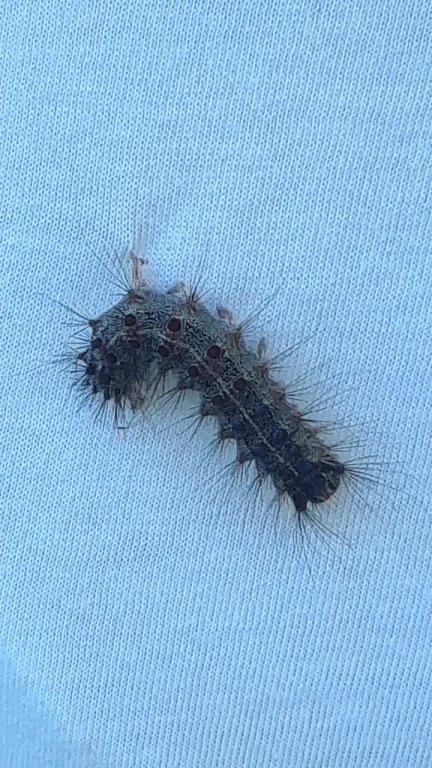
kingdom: Animalia
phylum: Arthropoda
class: Insecta
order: Lepidoptera
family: Erebidae
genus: Lymantria
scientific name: Lymantria dispar
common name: Gypsy moth
